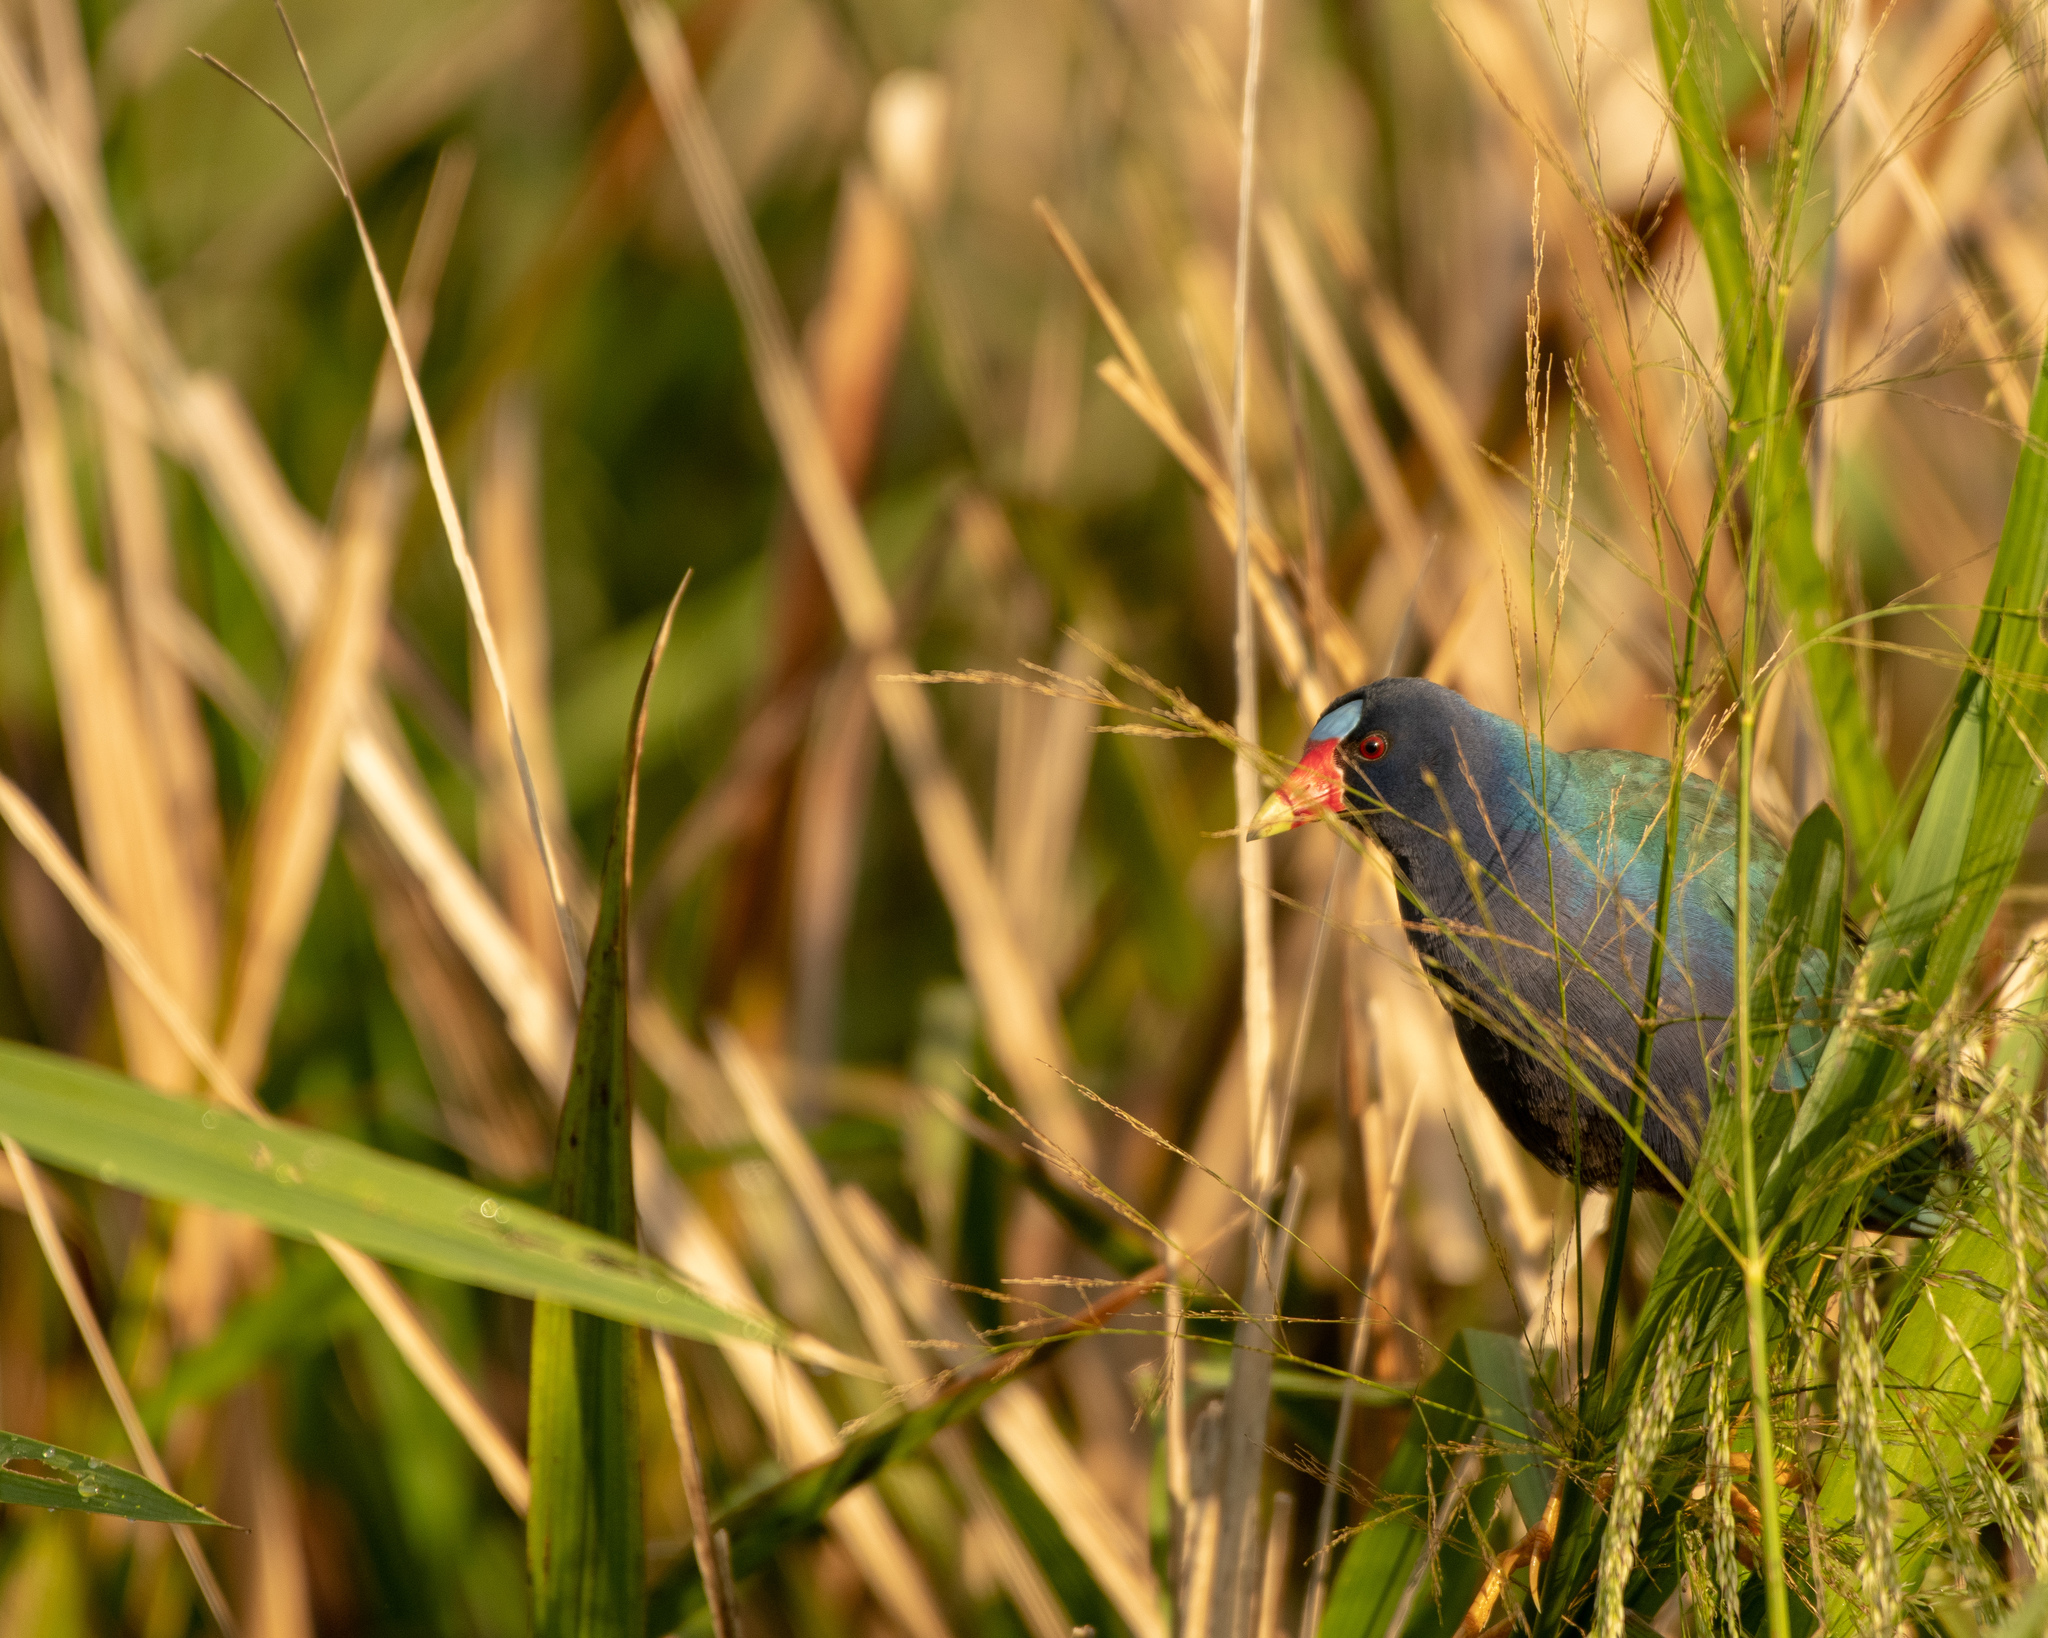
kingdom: Animalia
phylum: Chordata
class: Aves
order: Gruiformes
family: Rallidae
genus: Porphyrio
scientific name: Porphyrio martinica
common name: Purple gallinule
